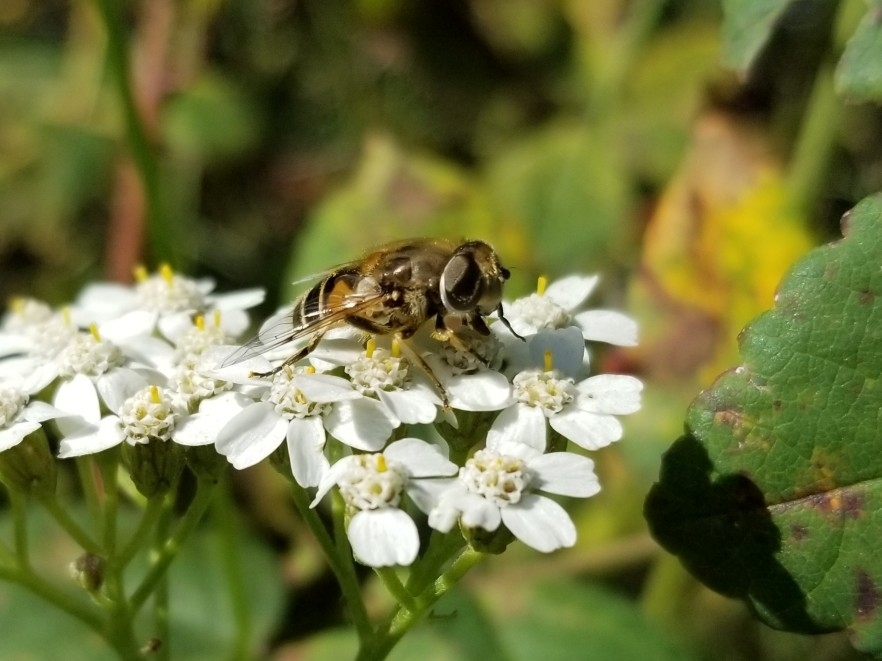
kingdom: Animalia
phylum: Arthropoda
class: Insecta
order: Diptera
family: Syrphidae
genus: Eristalis
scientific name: Eristalis arbustorum
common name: Hover fly
